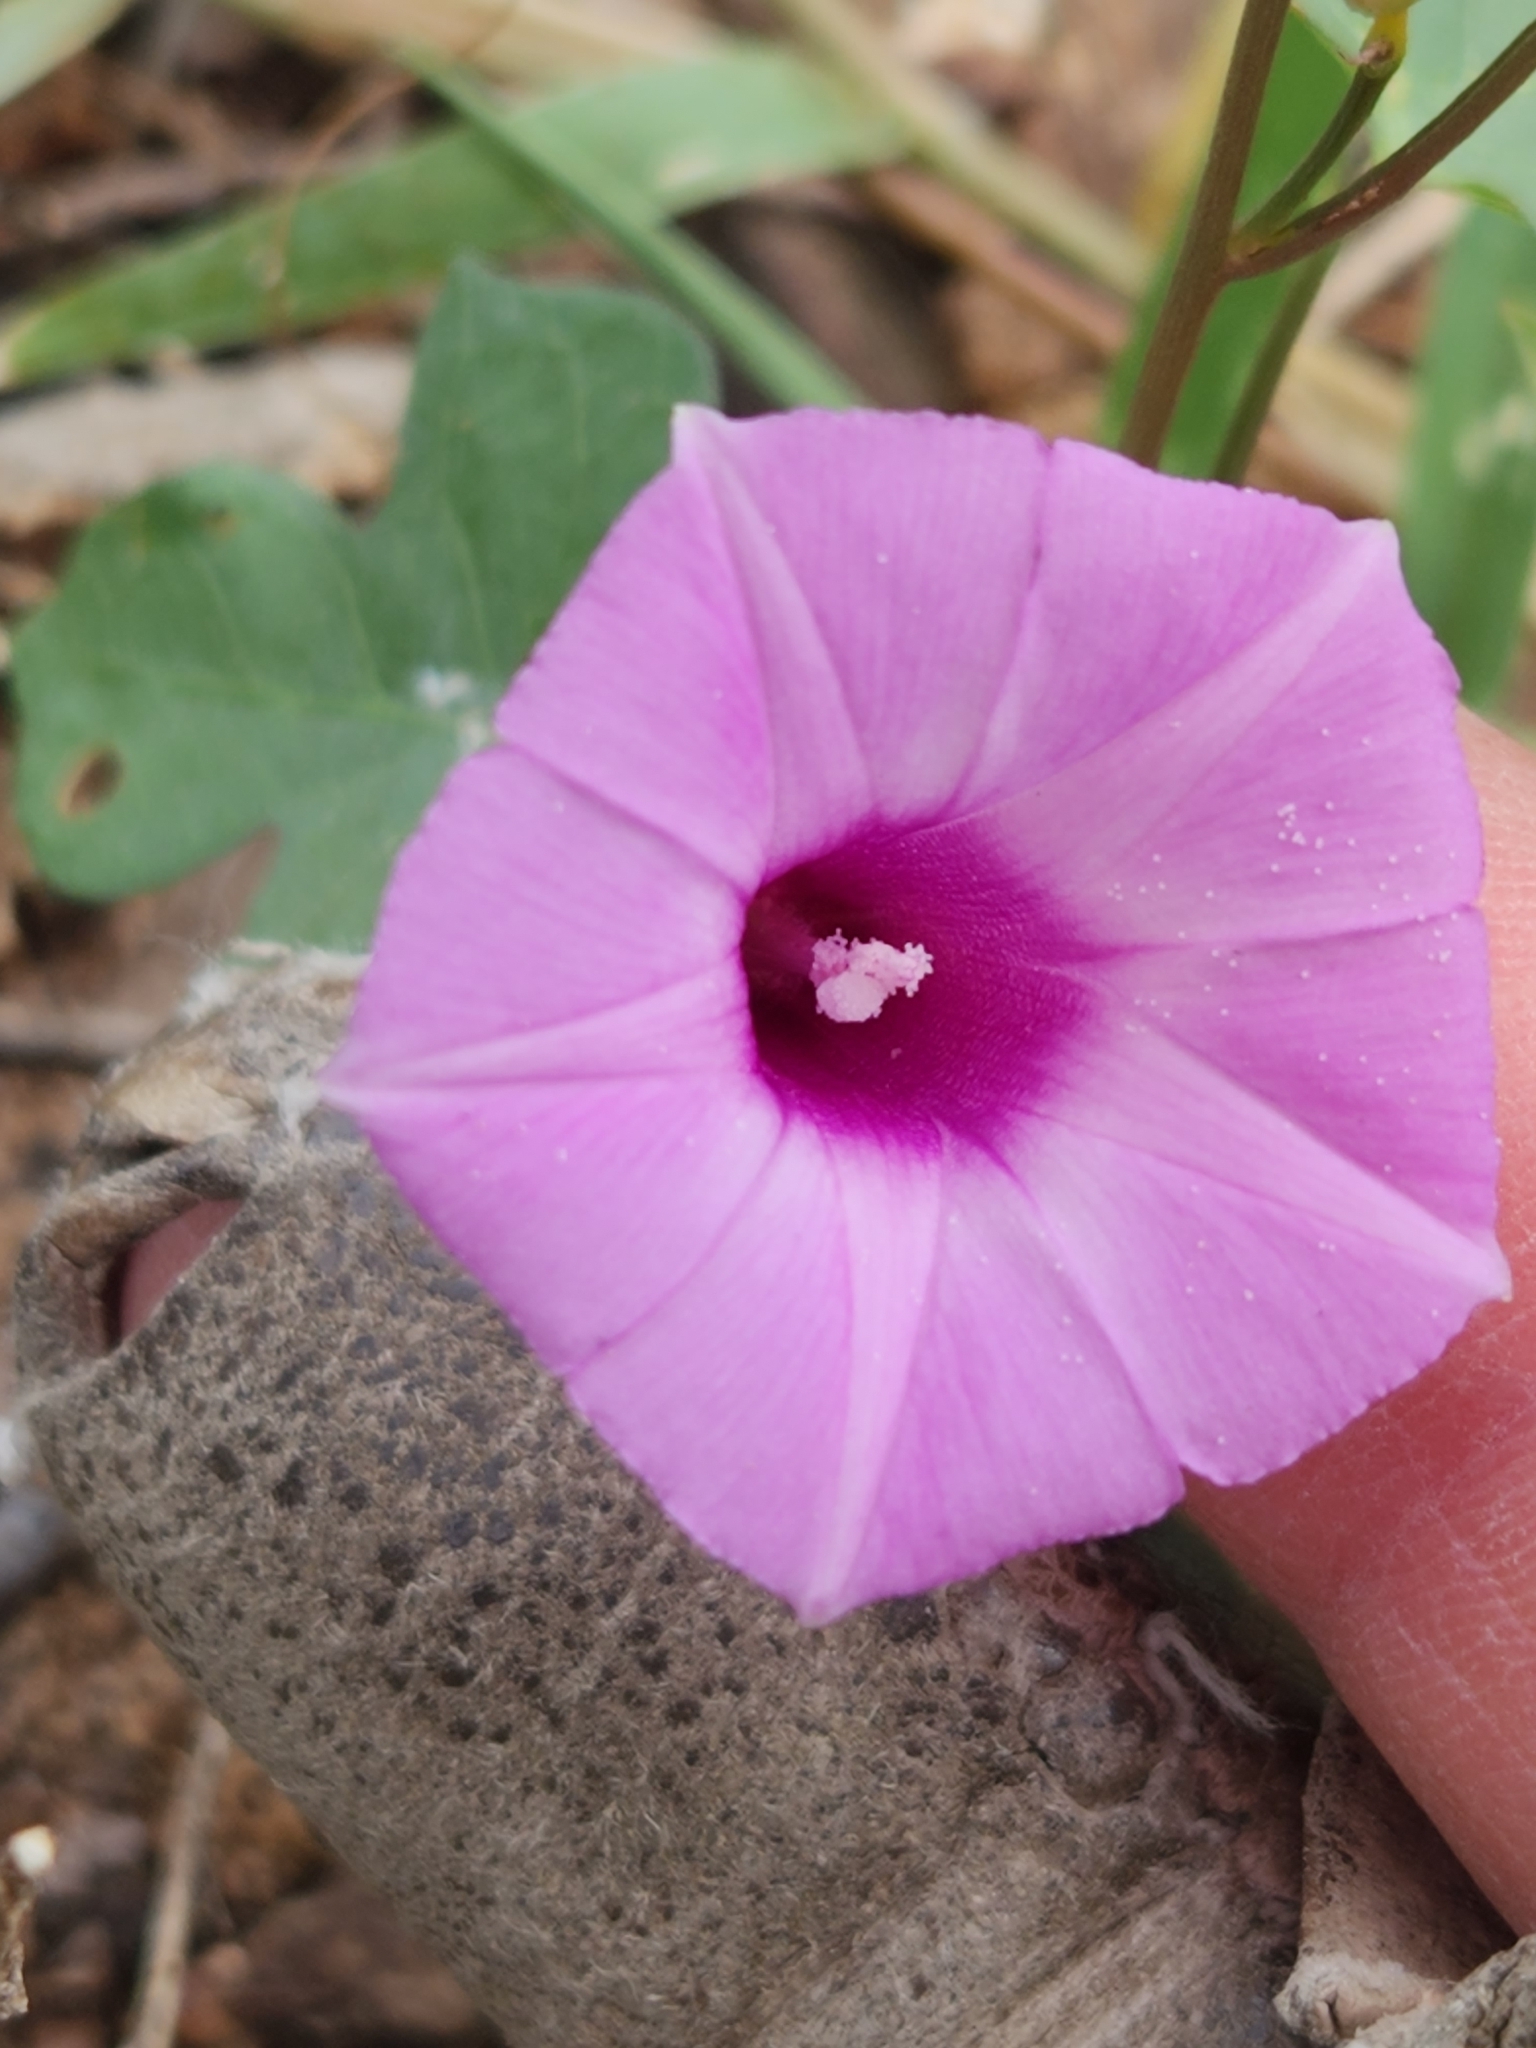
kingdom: Plantae
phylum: Tracheophyta
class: Magnoliopsida
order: Solanales
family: Convolvulaceae
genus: Ipomoea
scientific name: Ipomoea cordatotriloba
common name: Cotton morning glory
